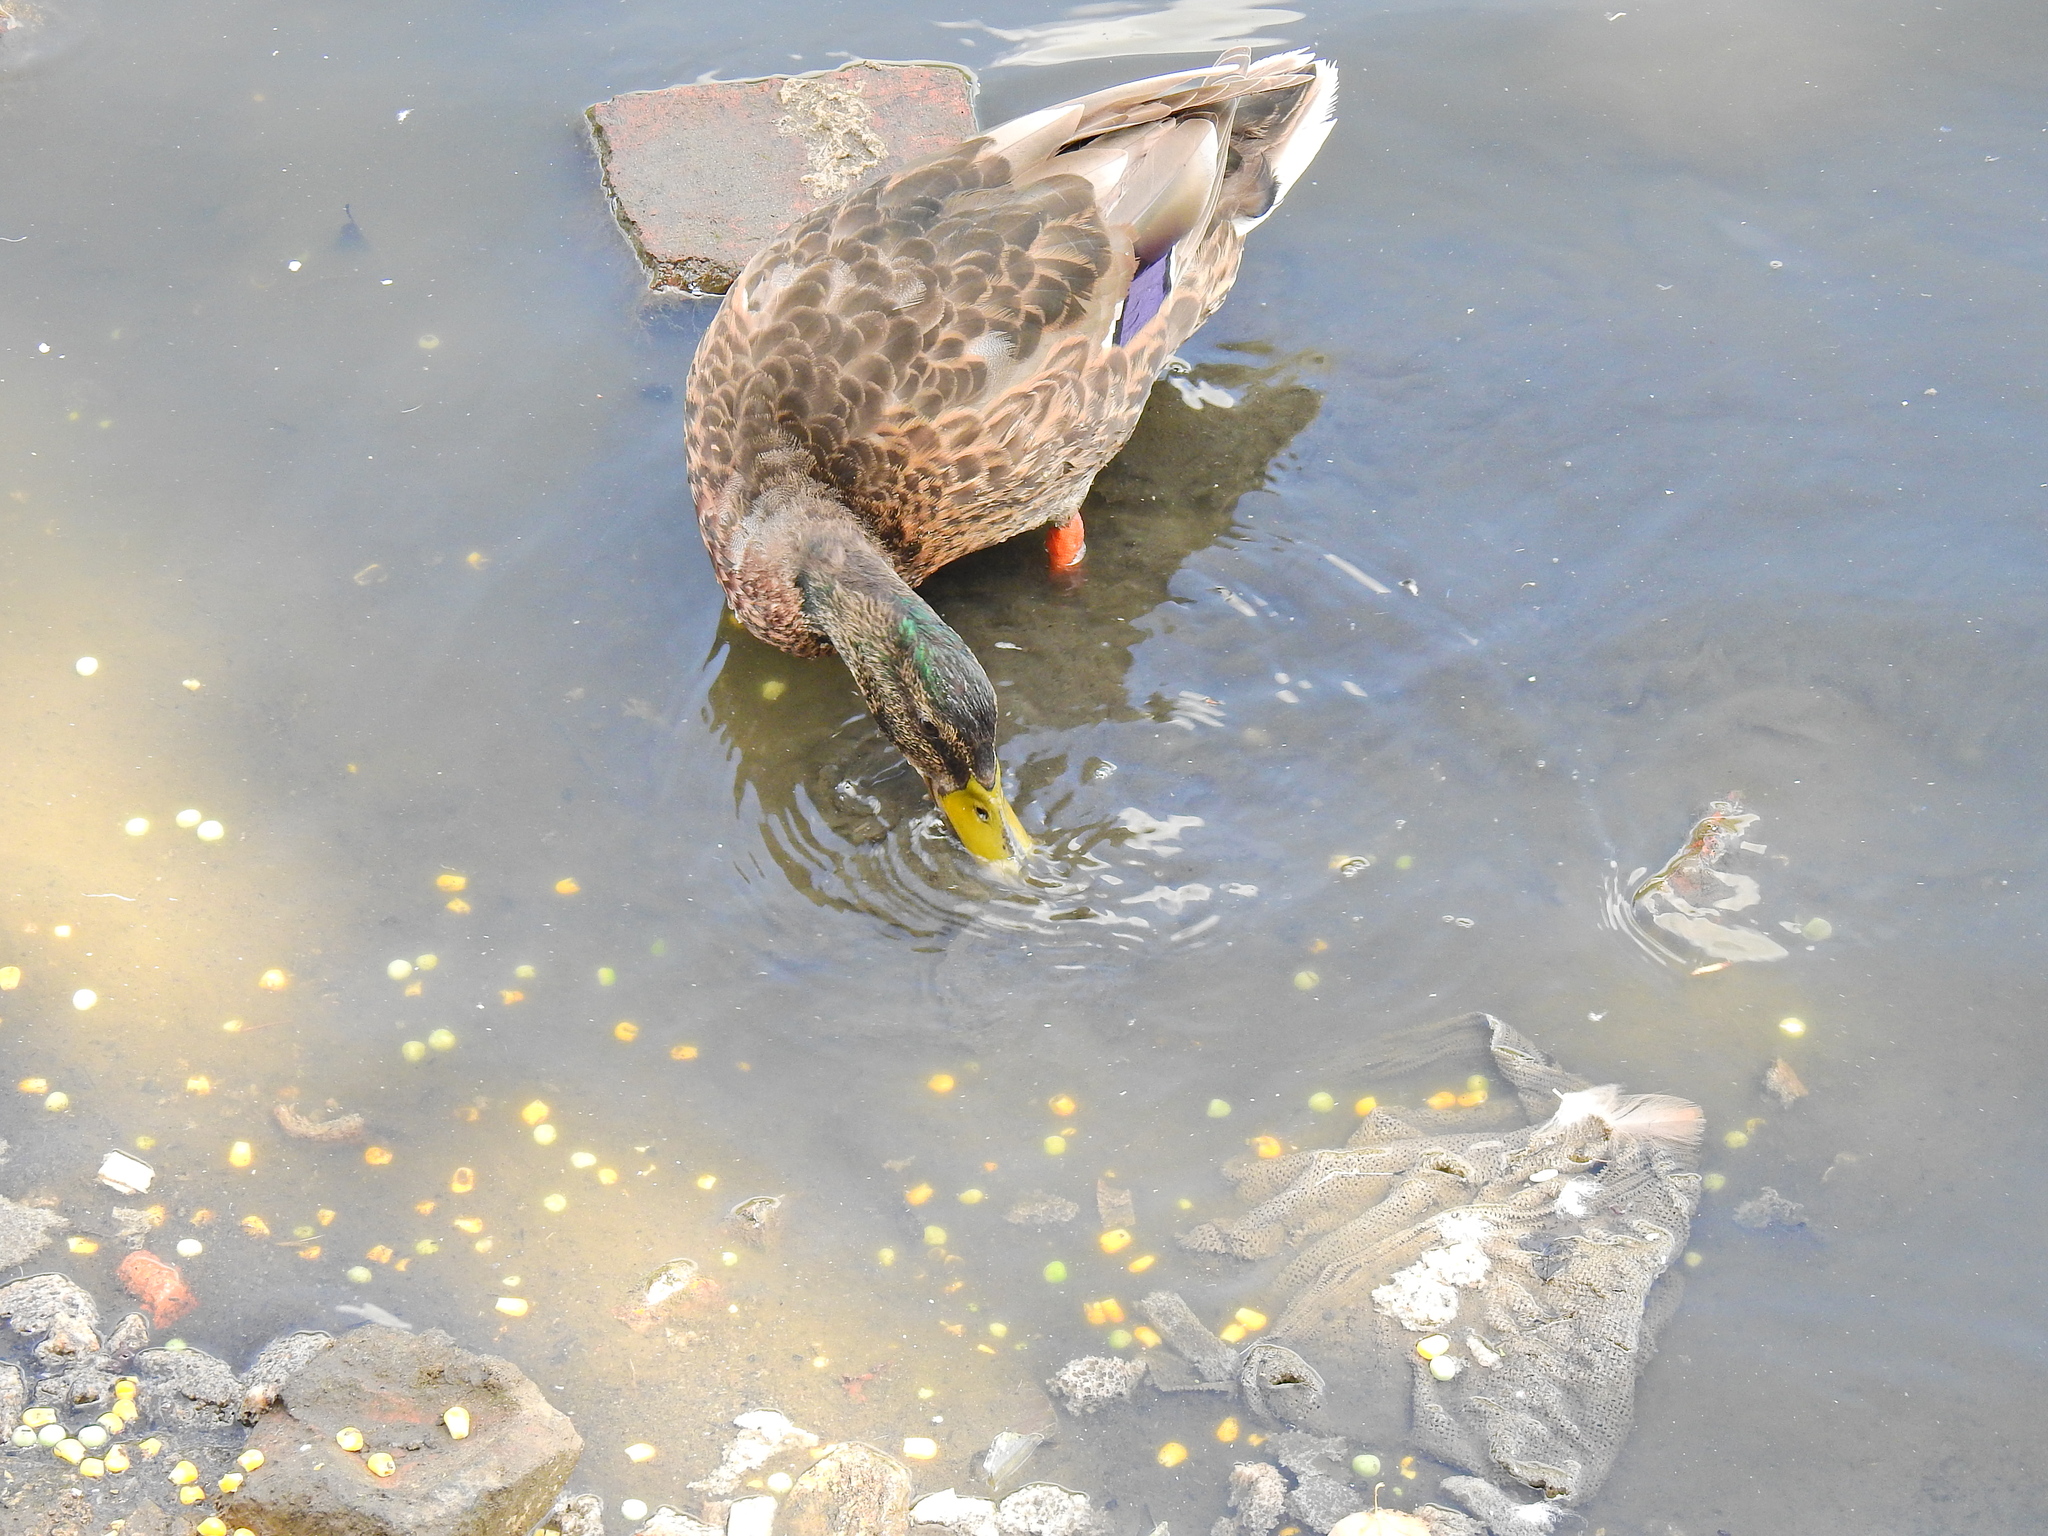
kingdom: Animalia
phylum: Chordata
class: Aves
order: Anseriformes
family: Anatidae
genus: Anas
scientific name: Anas platyrhynchos
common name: Mallard
